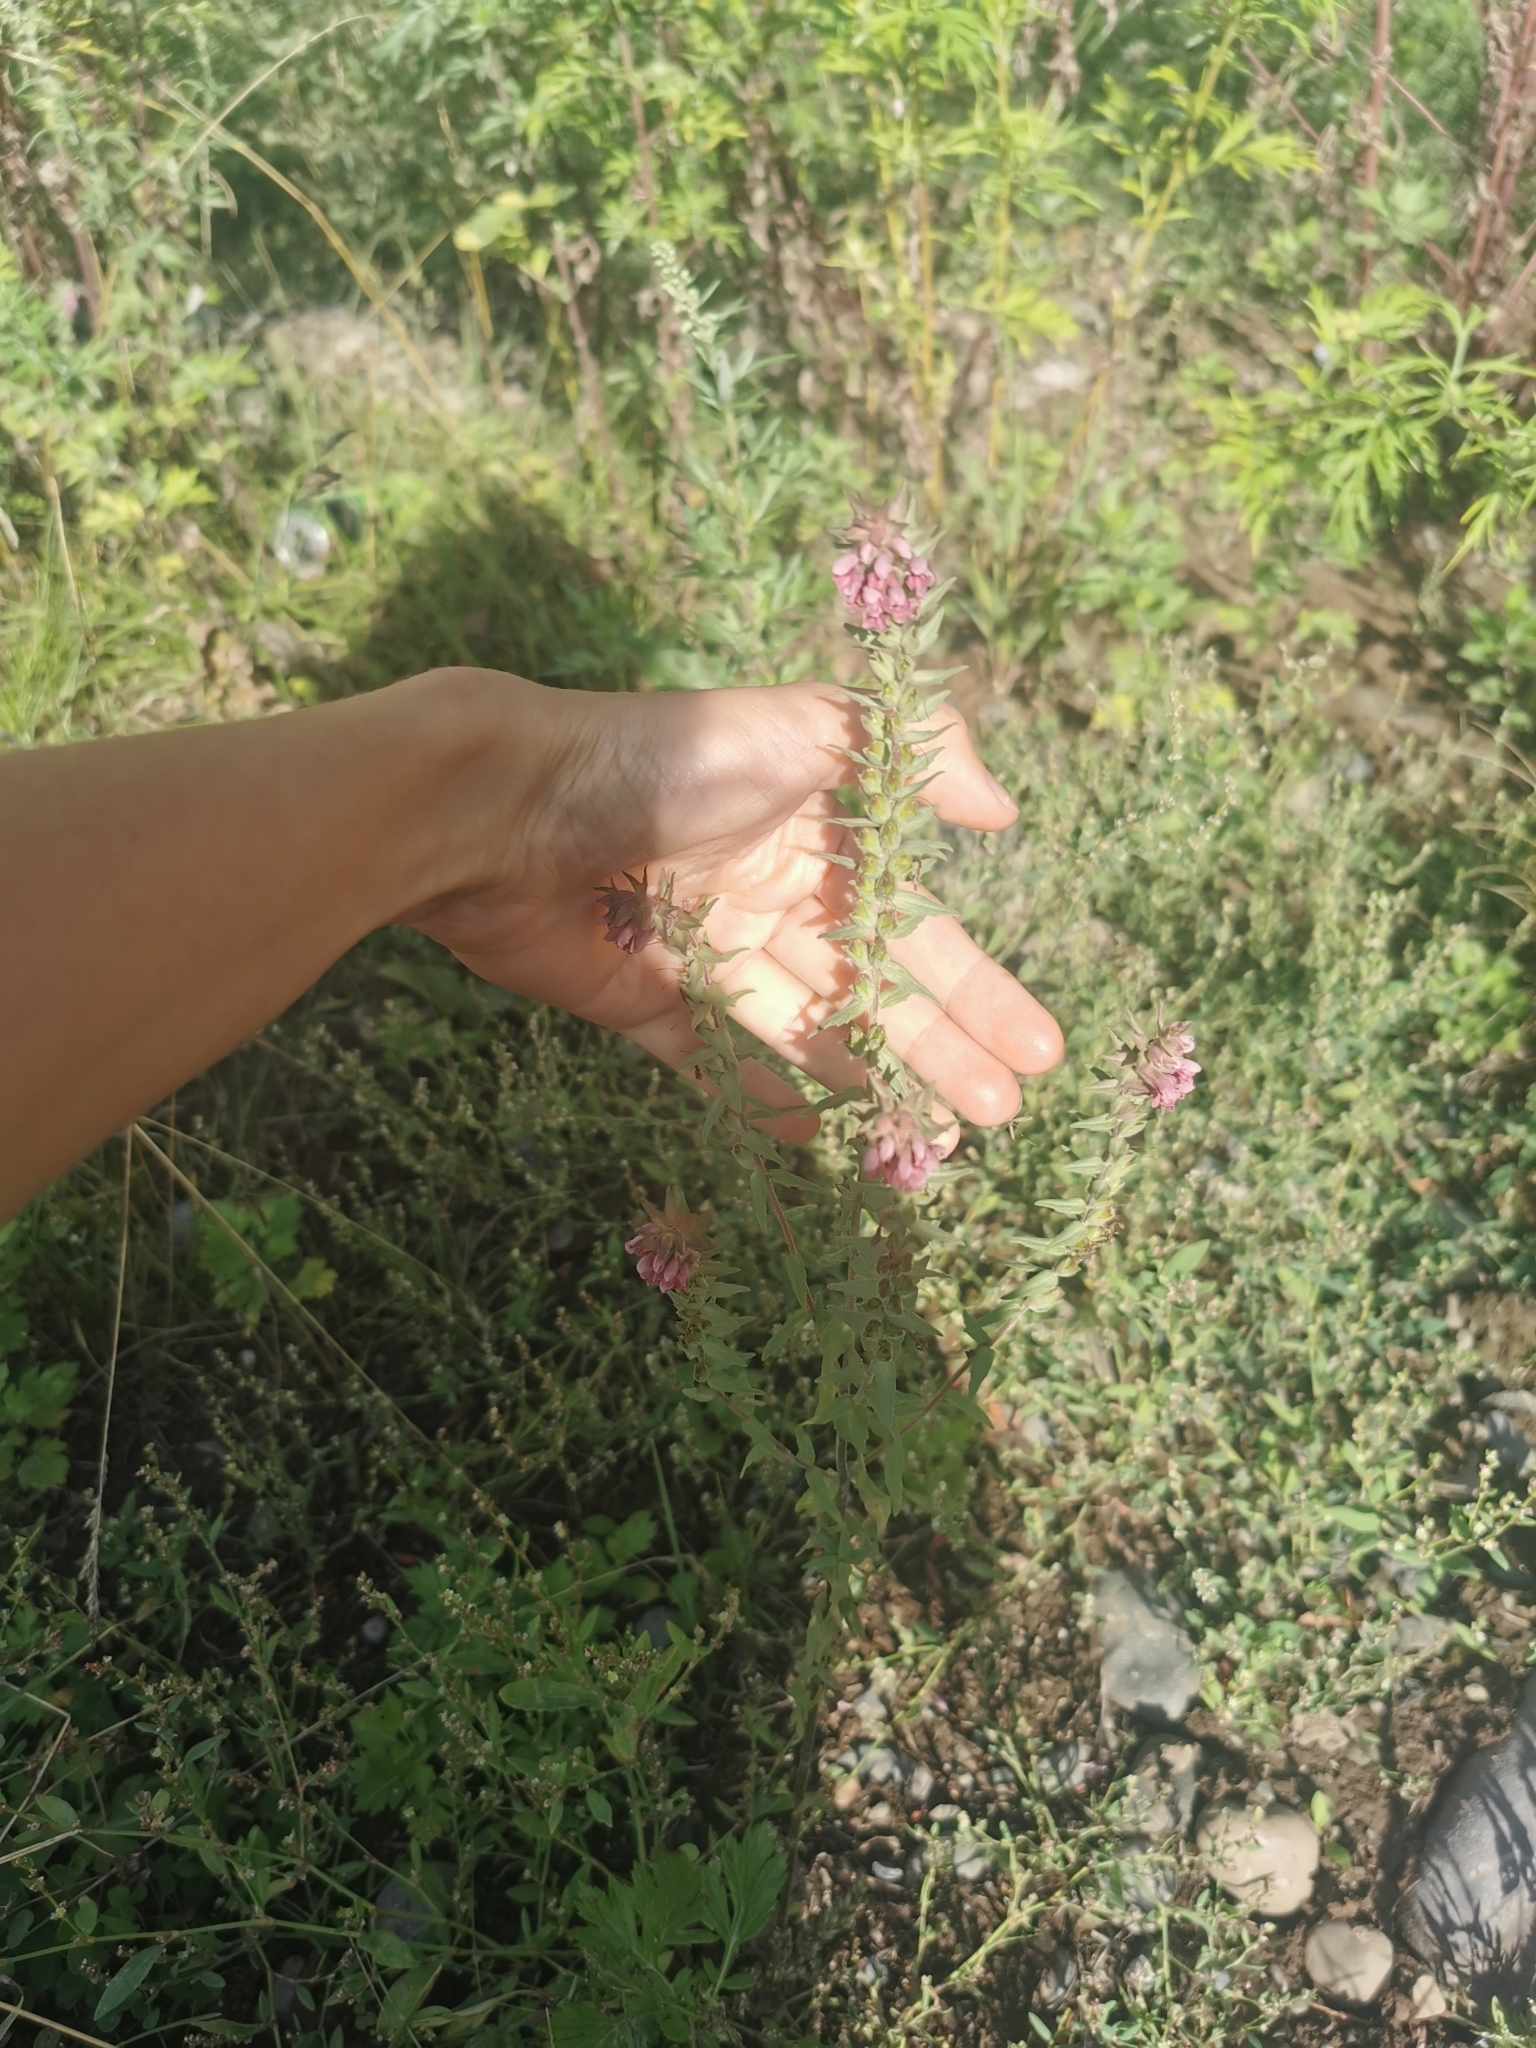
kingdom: Plantae
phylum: Tracheophyta
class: Magnoliopsida
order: Lamiales
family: Orobanchaceae
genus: Odontites
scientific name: Odontites vulgaris
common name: Broomrape
